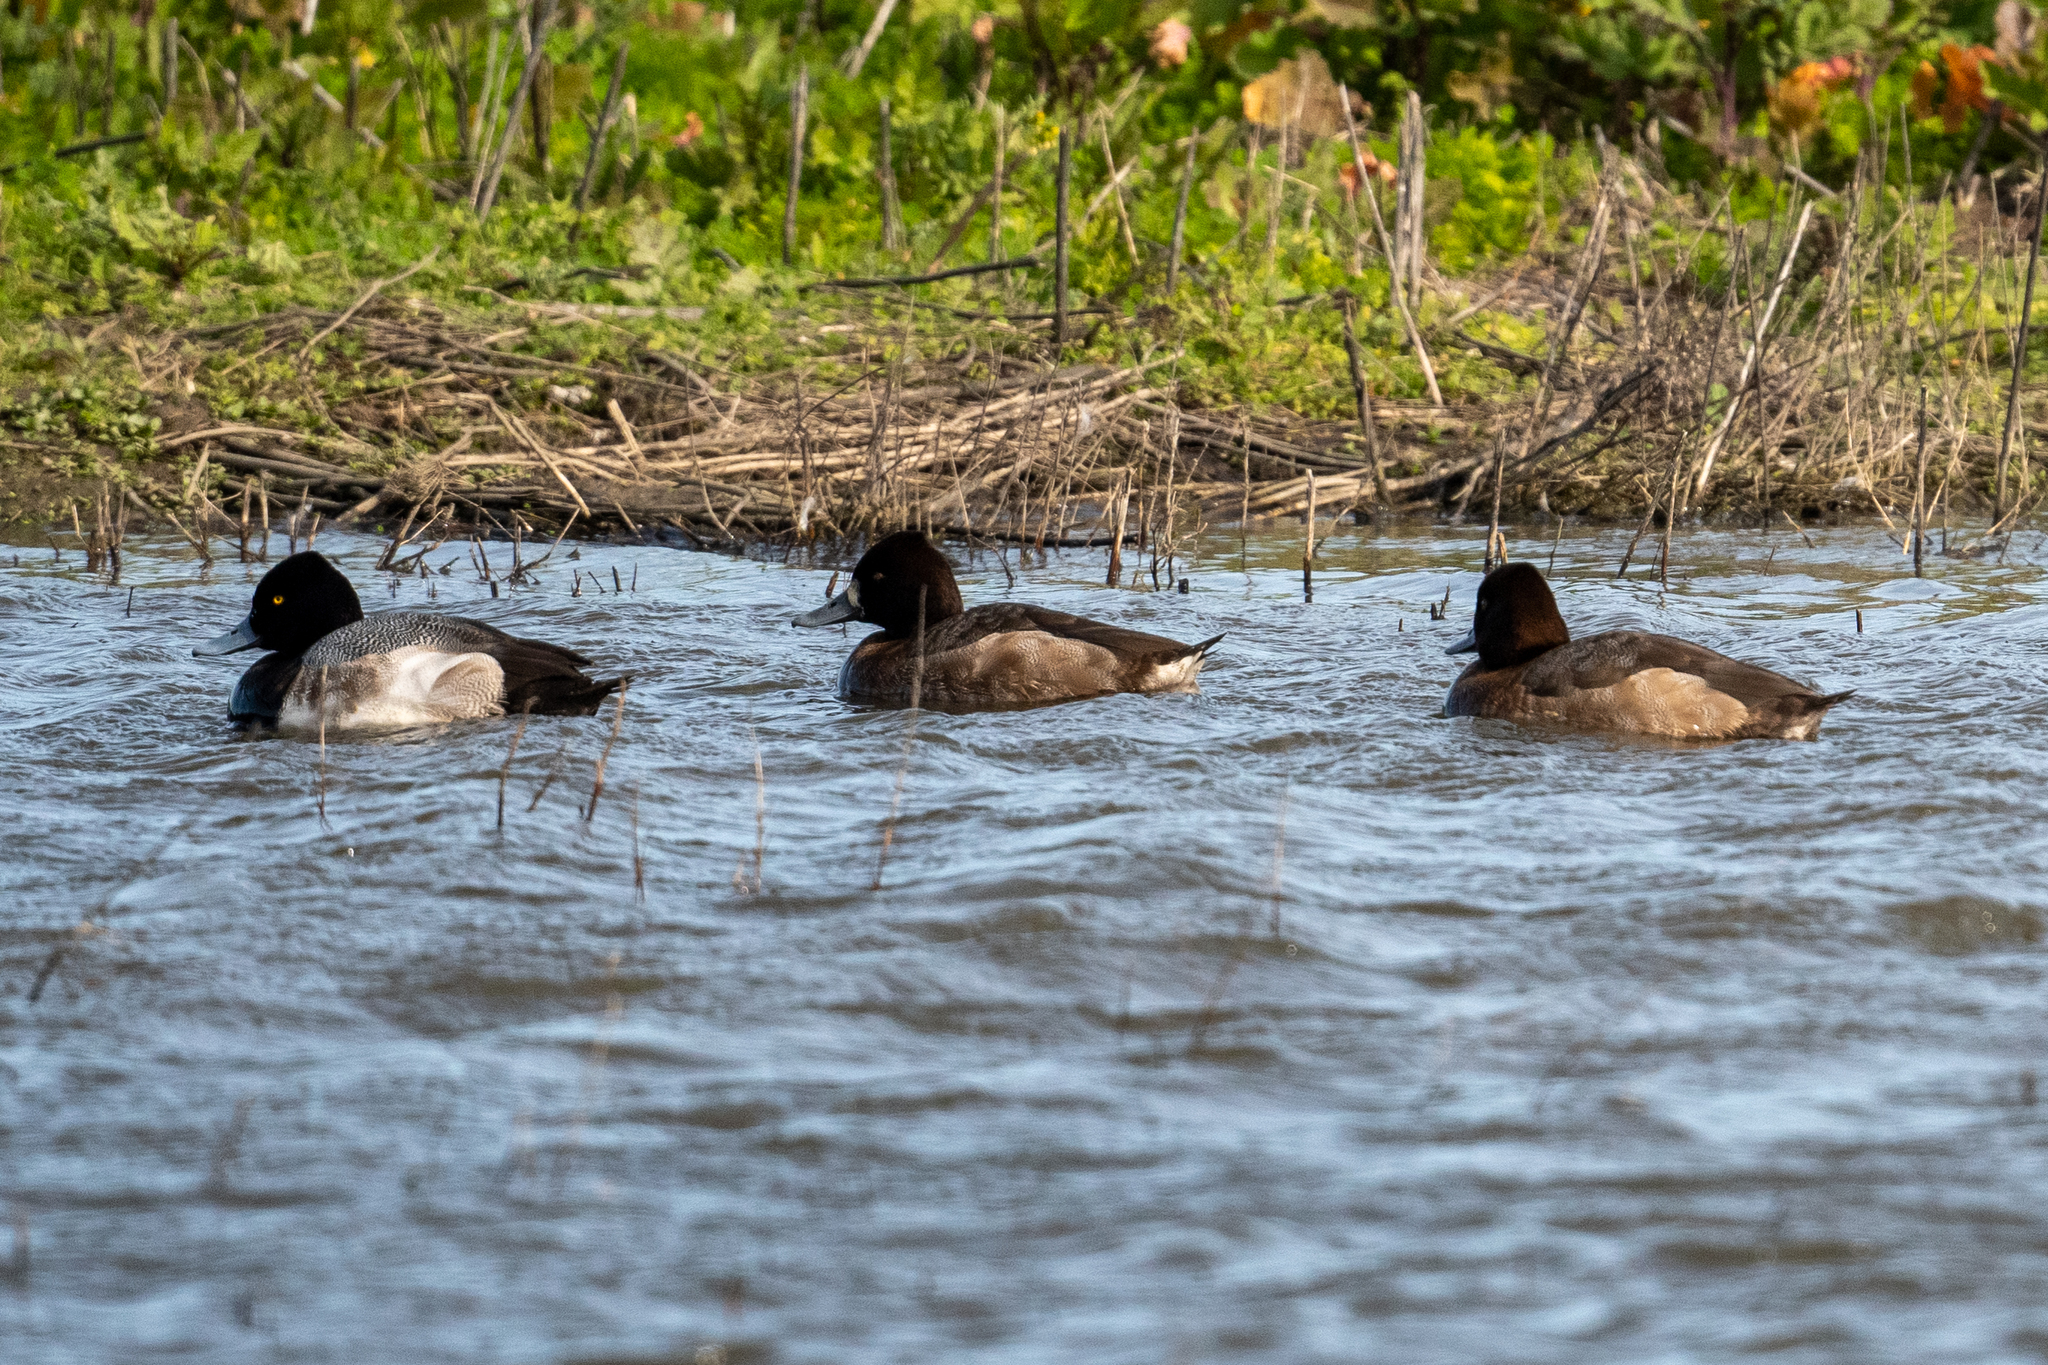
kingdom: Animalia
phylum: Chordata
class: Aves
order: Anseriformes
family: Anatidae
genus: Aythya
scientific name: Aythya affinis
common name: Lesser scaup
